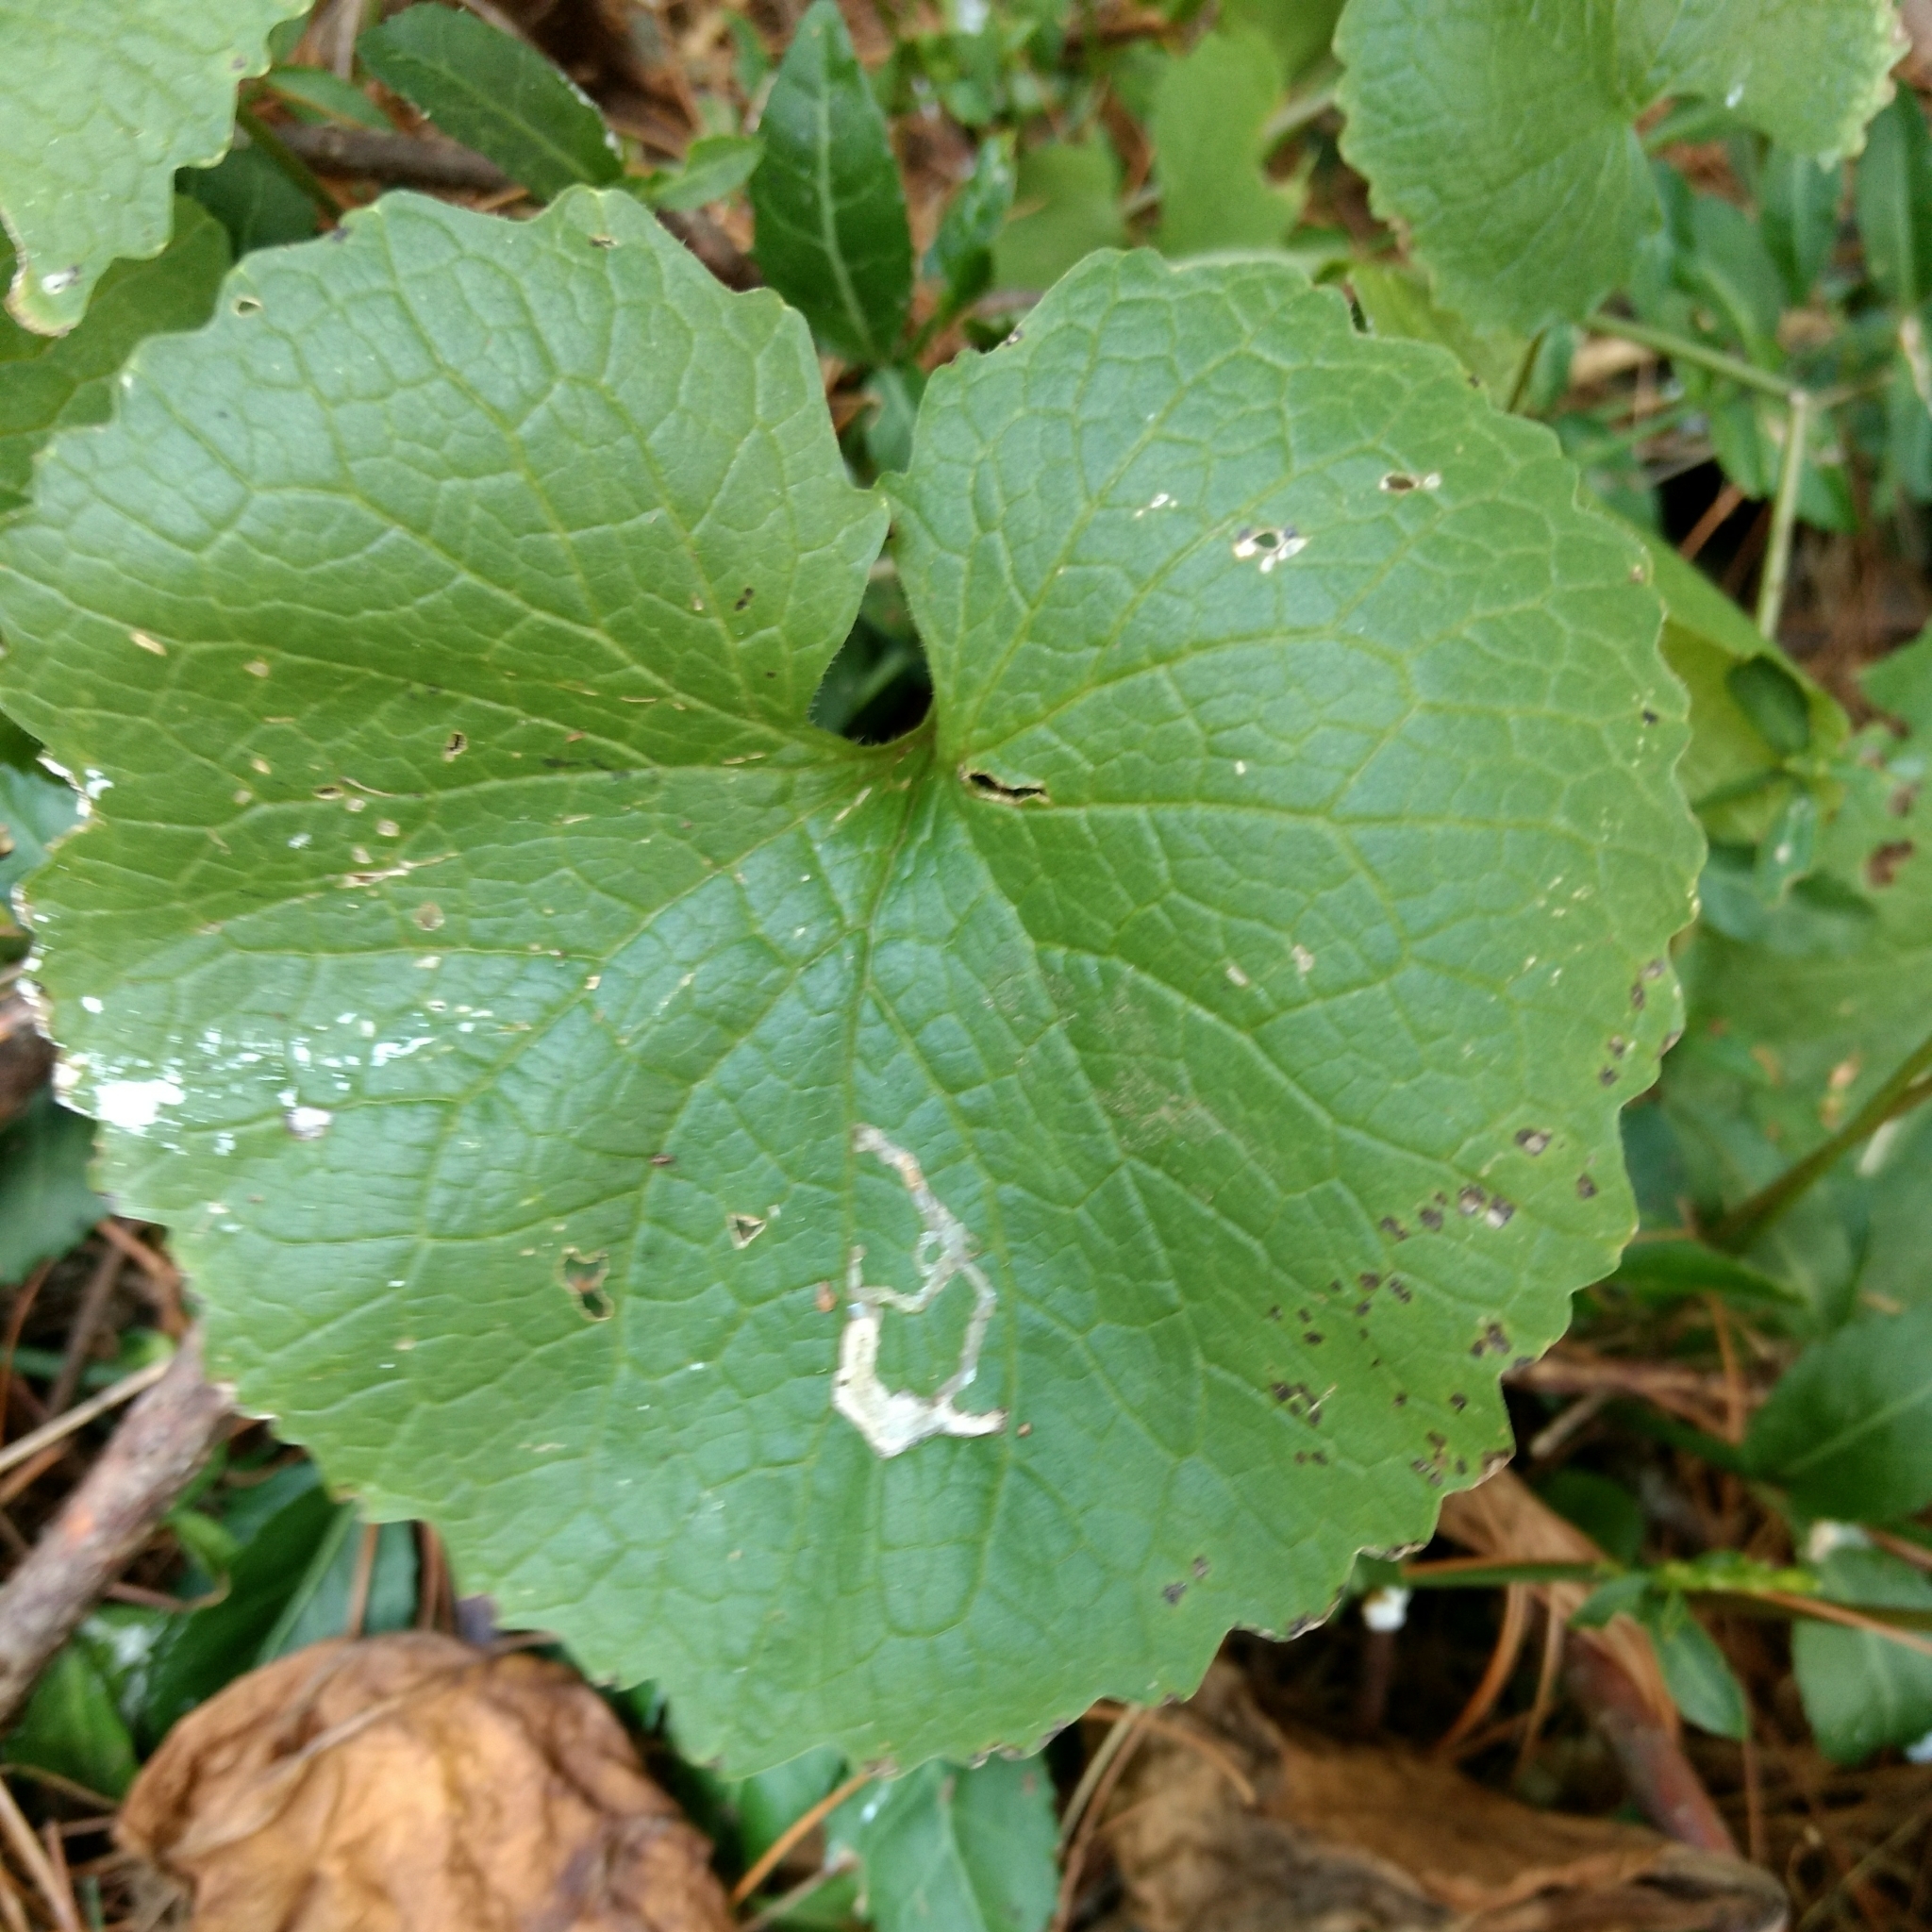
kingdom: Animalia
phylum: Arthropoda
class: Insecta
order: Diptera
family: Agromyzidae
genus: Liriomyza
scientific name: Liriomyza brassicae
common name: Serpentine leaf miner
